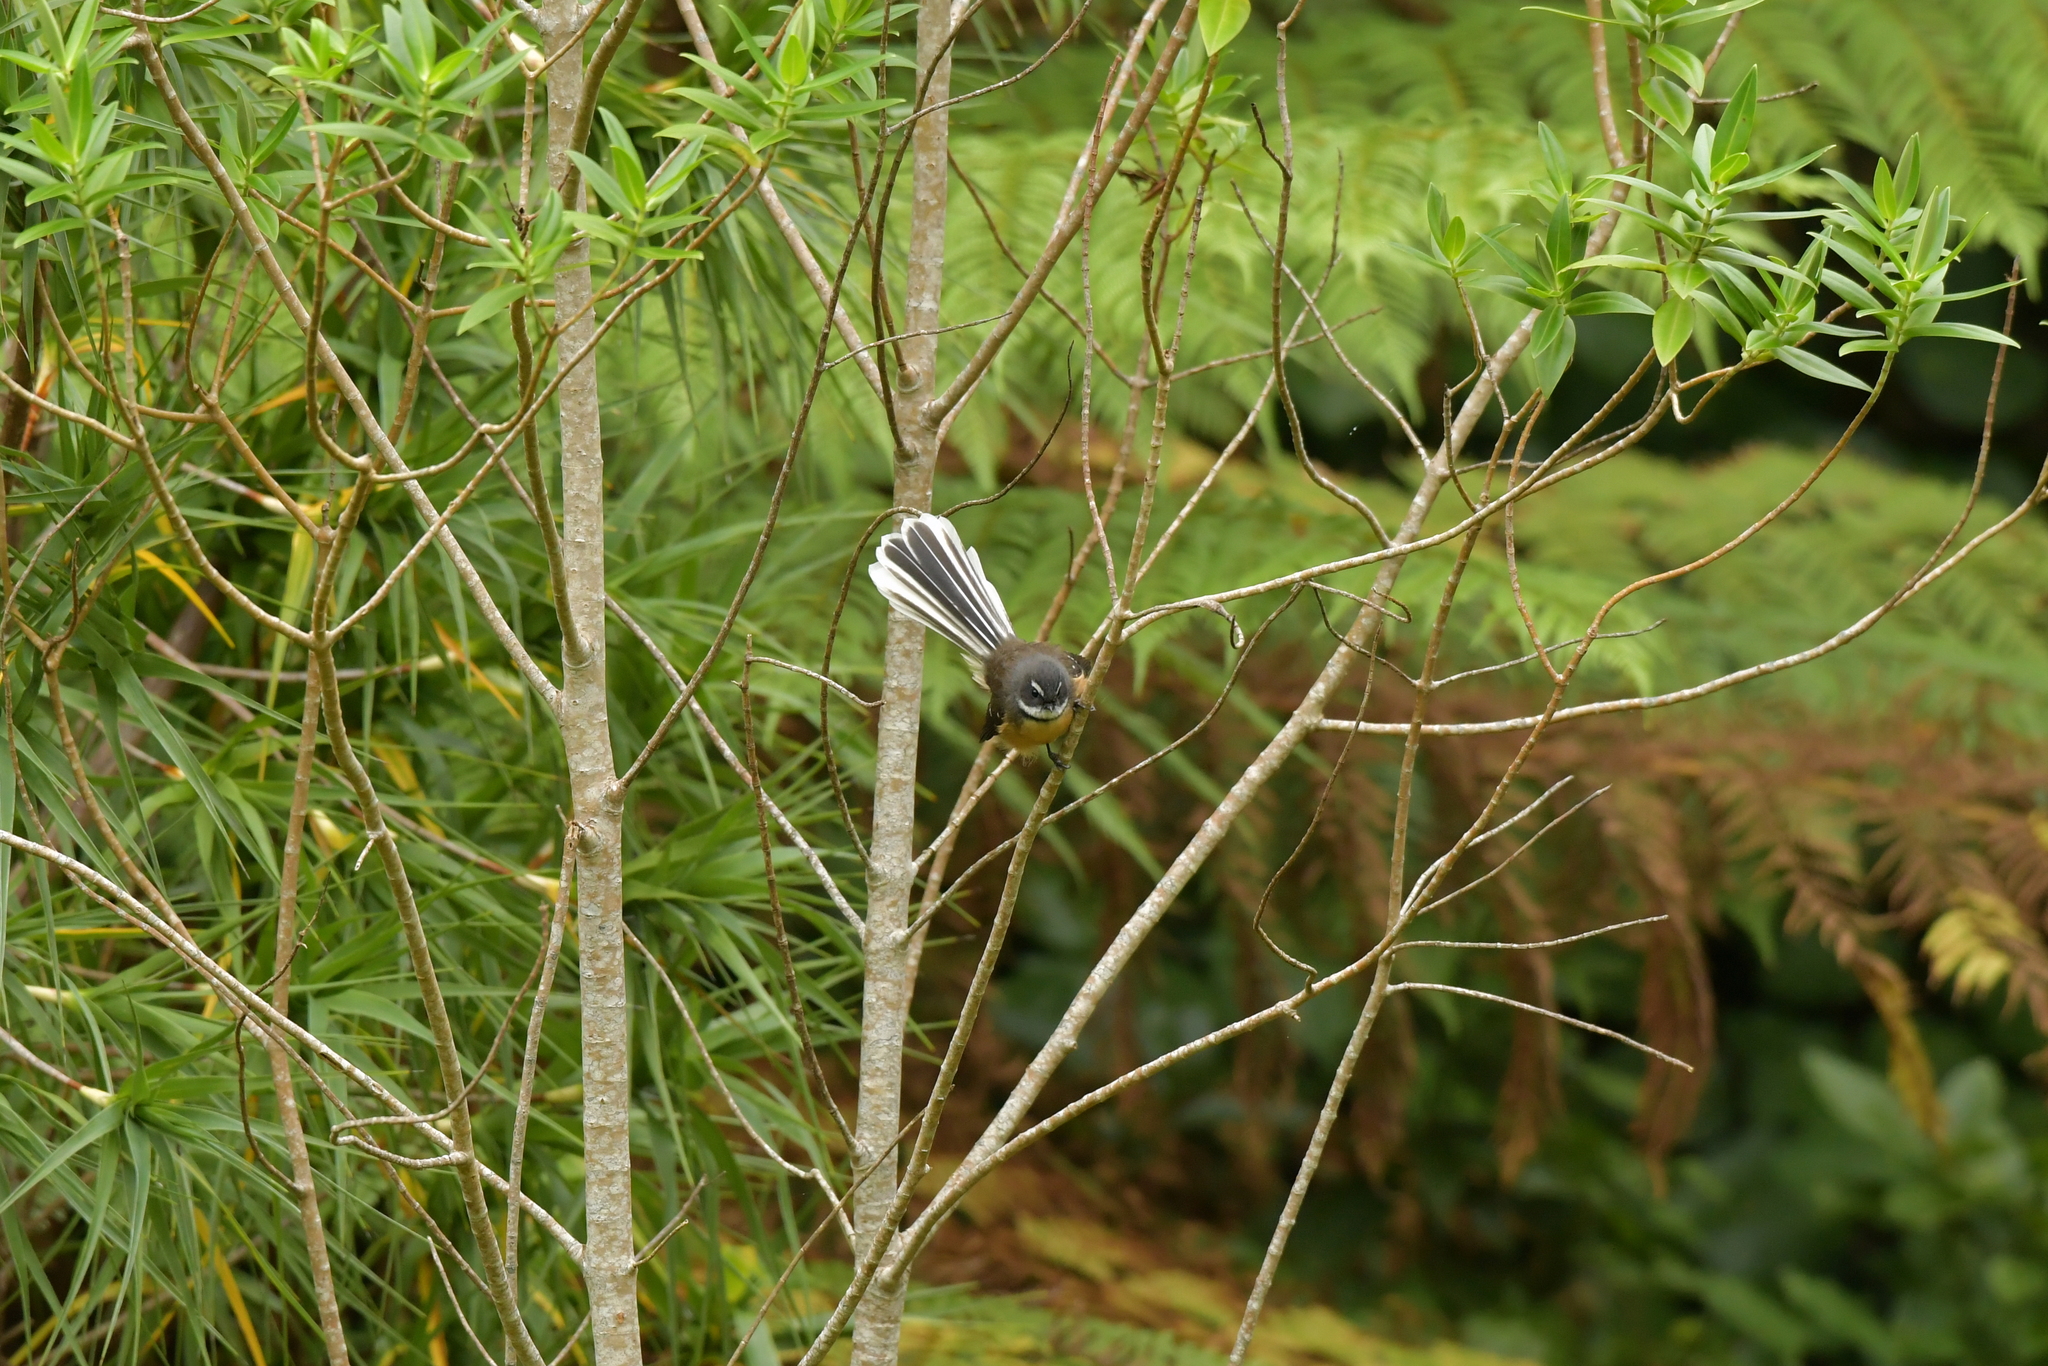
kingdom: Animalia
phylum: Chordata
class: Aves
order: Passeriformes
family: Rhipiduridae
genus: Rhipidura
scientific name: Rhipidura fuliginosa
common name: New zealand fantail
